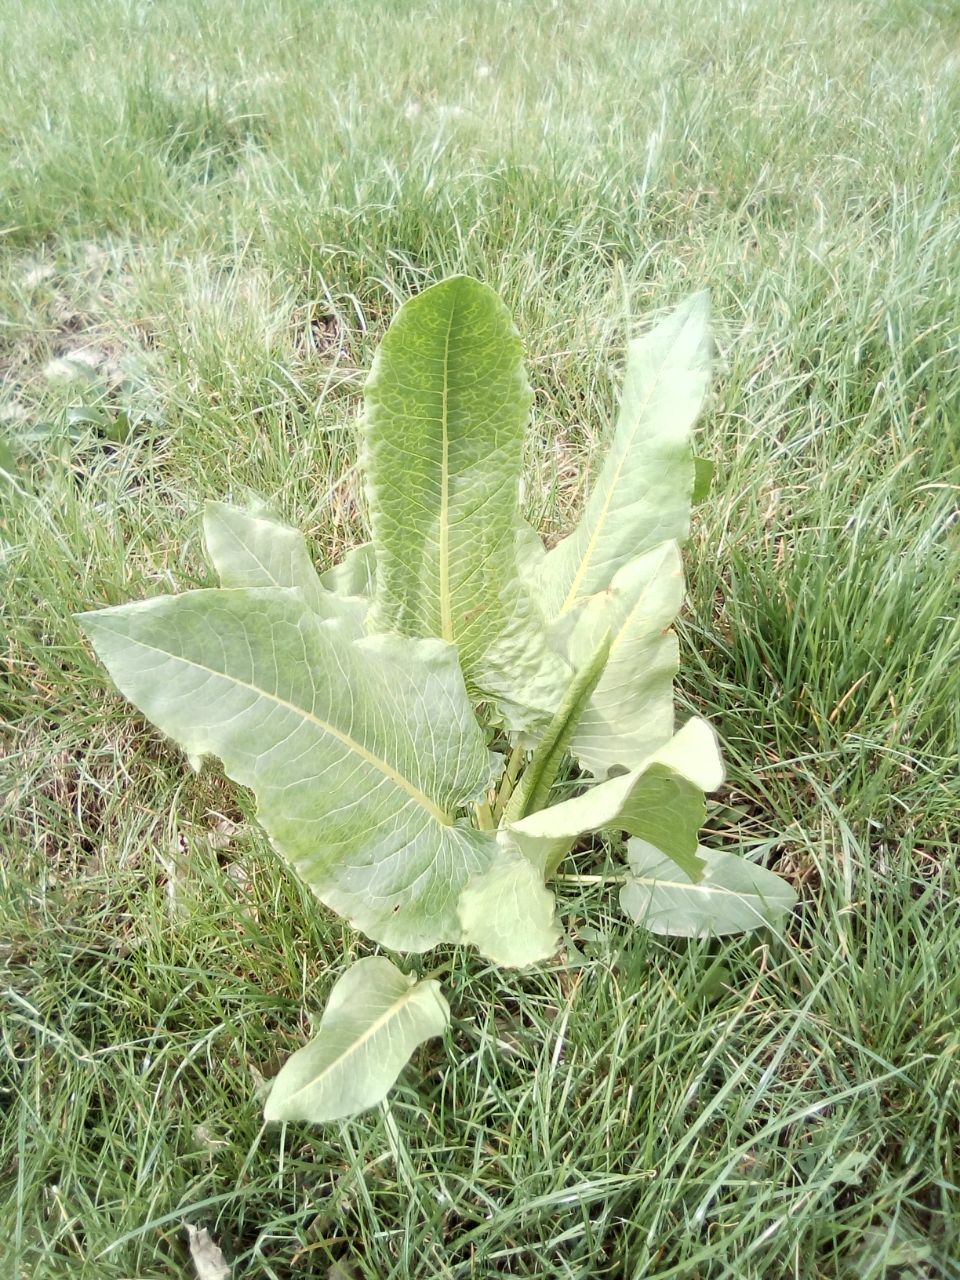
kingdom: Plantae
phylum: Tracheophyta
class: Magnoliopsida
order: Asterales
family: Asteraceae
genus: Ligularia
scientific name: Ligularia heterophylla
